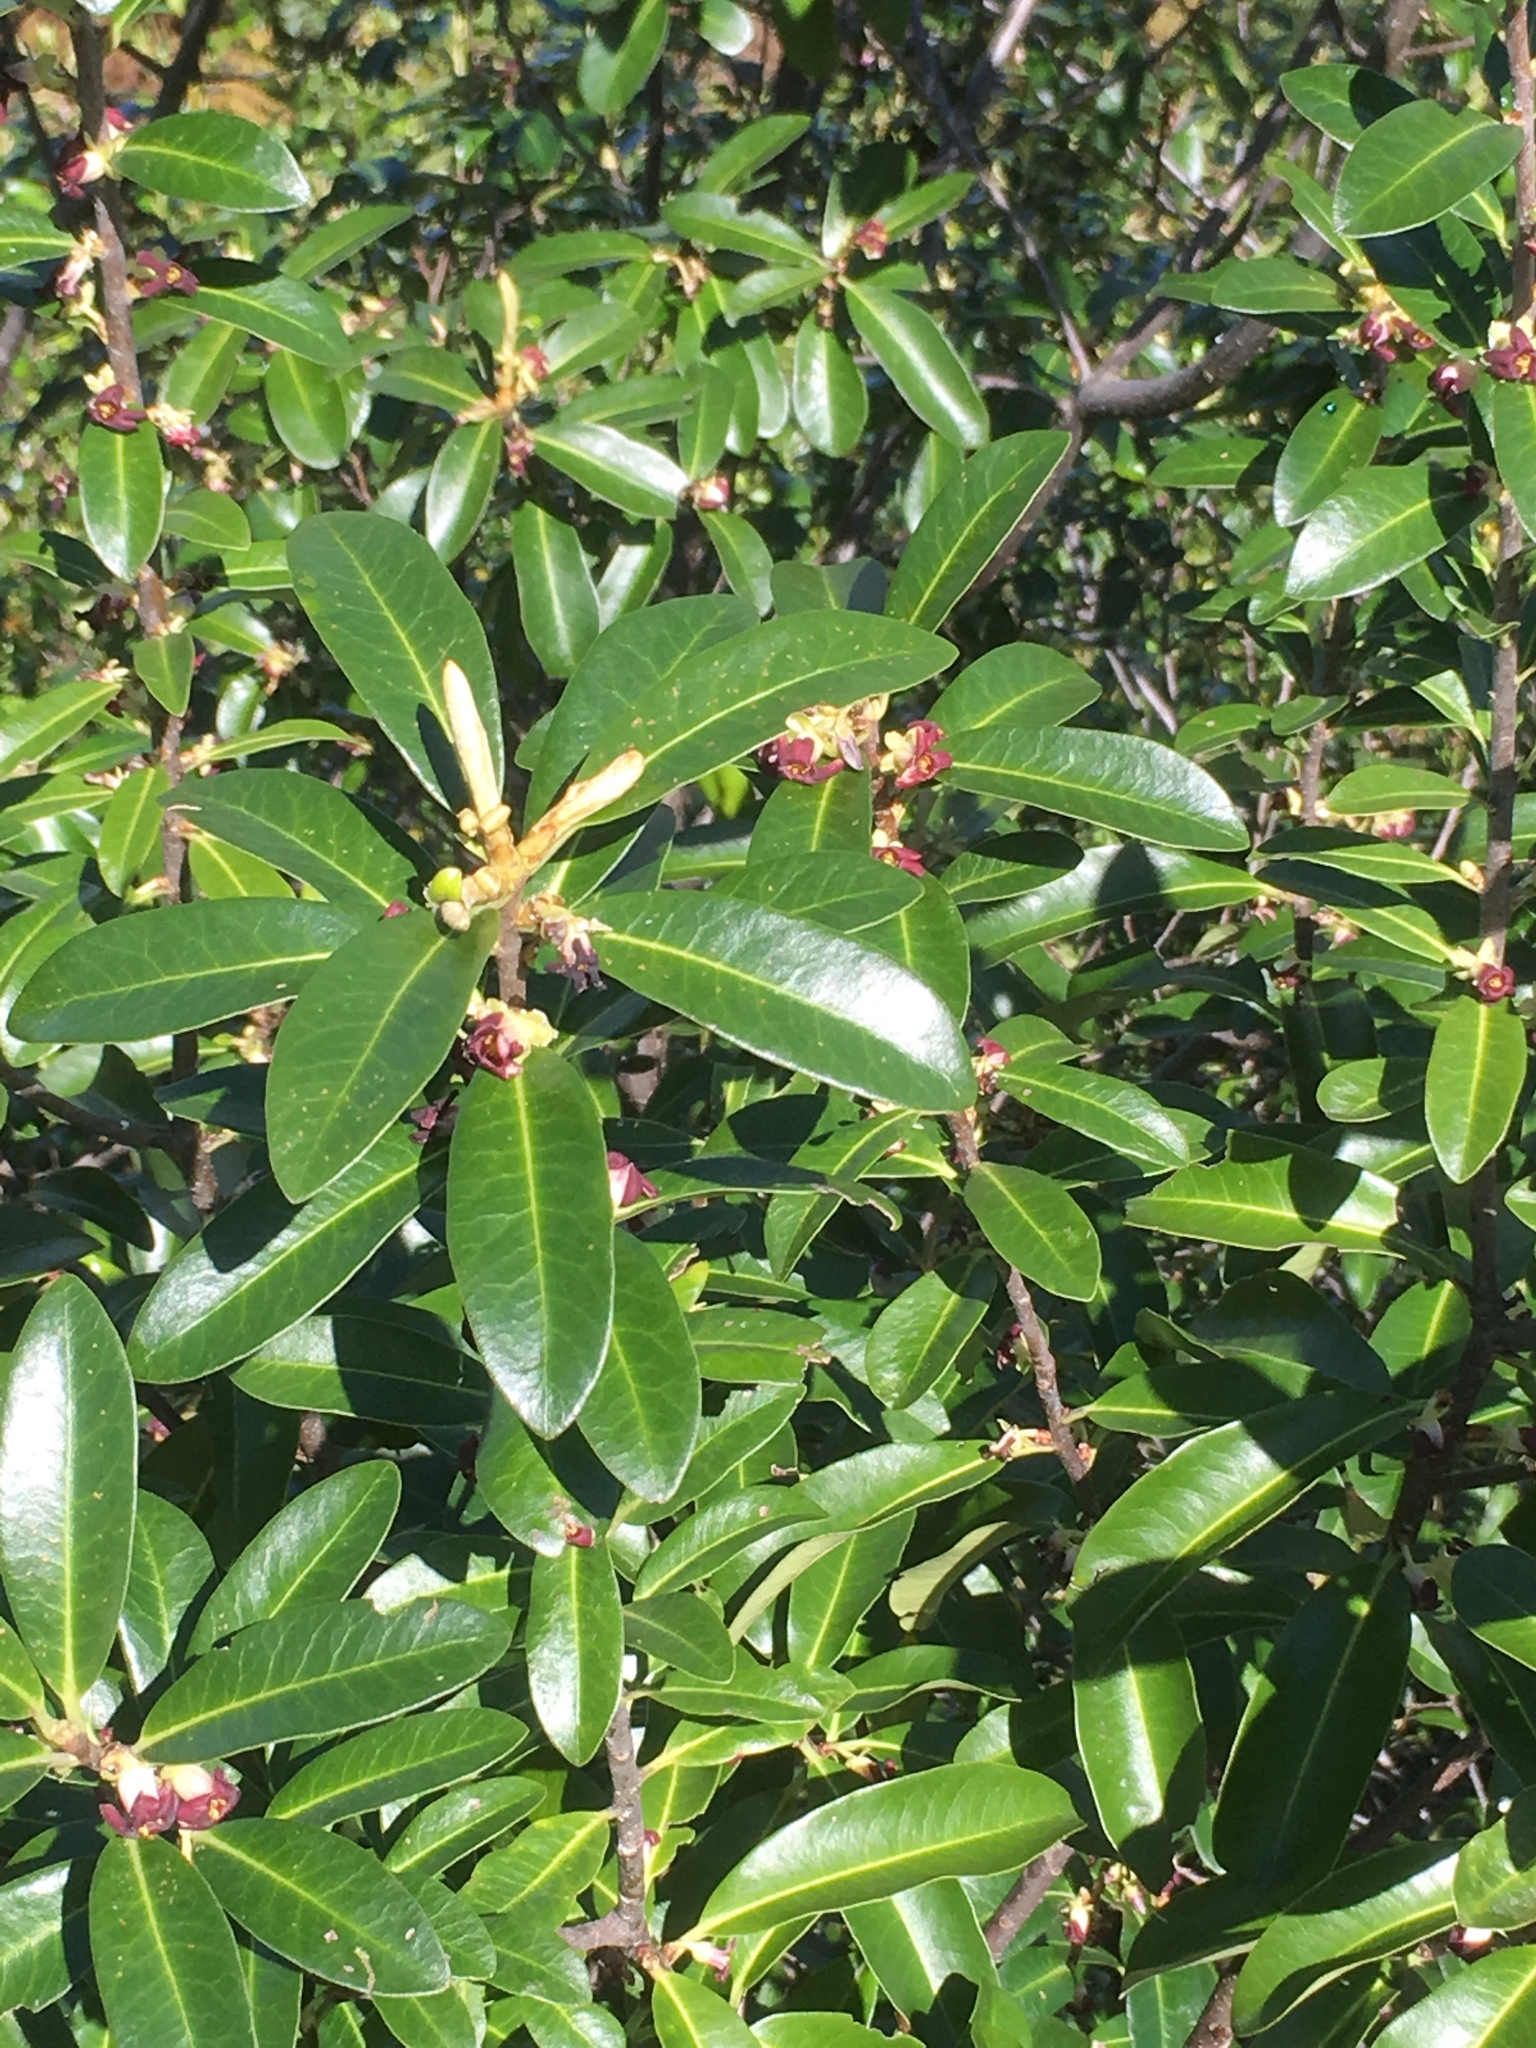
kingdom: Plantae
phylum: Tracheophyta
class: Magnoliopsida
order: Apiales
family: Pittosporaceae
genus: Pittosporum
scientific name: Pittosporum colensoi
